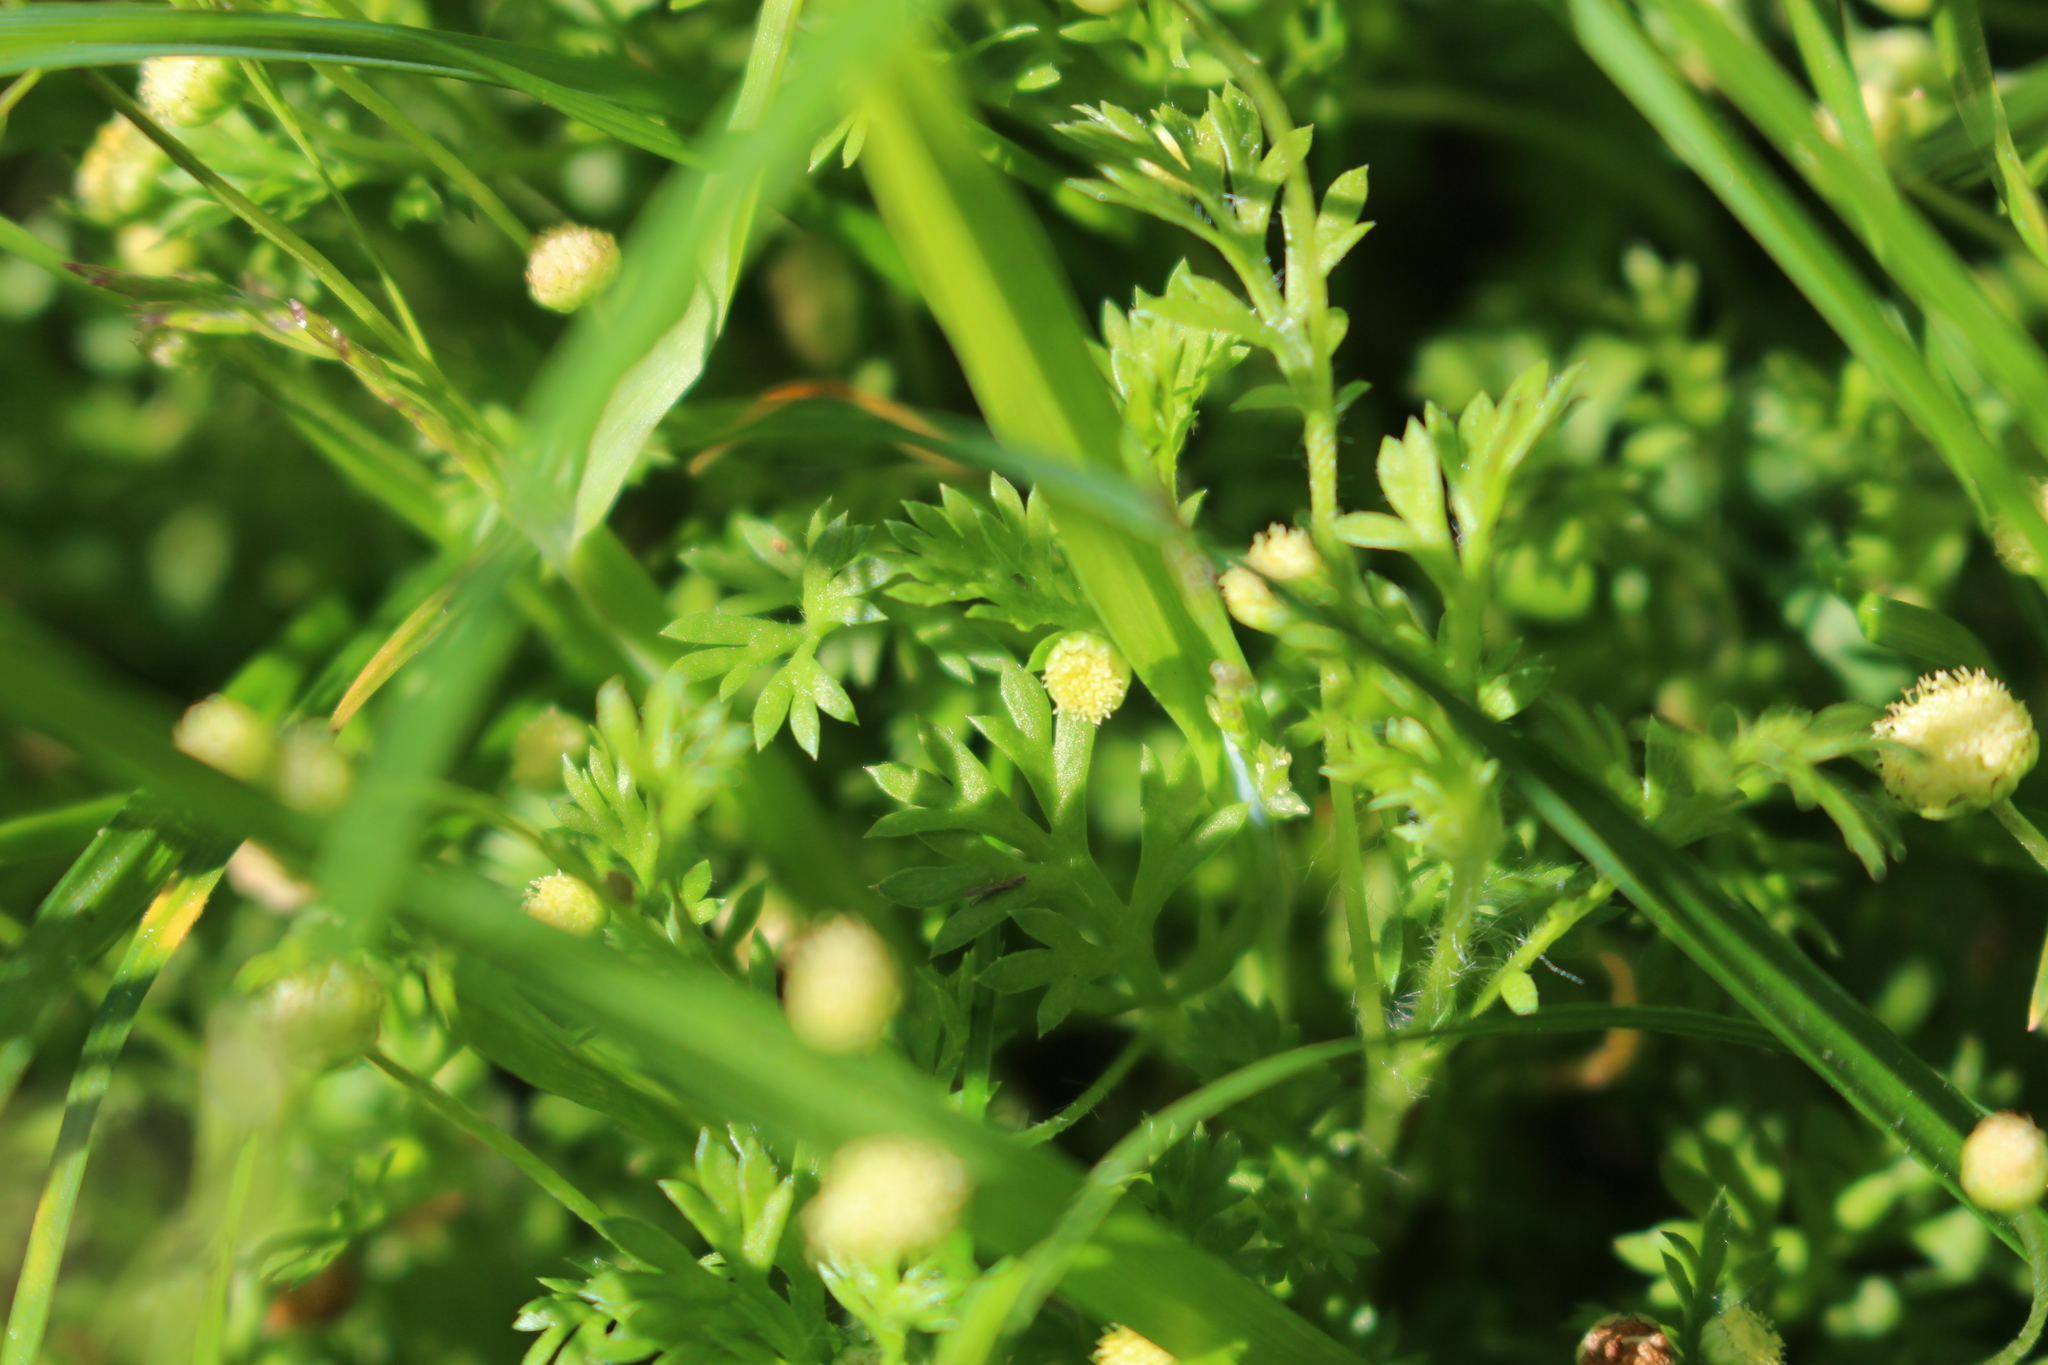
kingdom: Plantae
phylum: Tracheophyta
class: Magnoliopsida
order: Asterales
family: Asteraceae
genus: Cotula
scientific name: Cotula australis
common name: Australian waterbuttons
